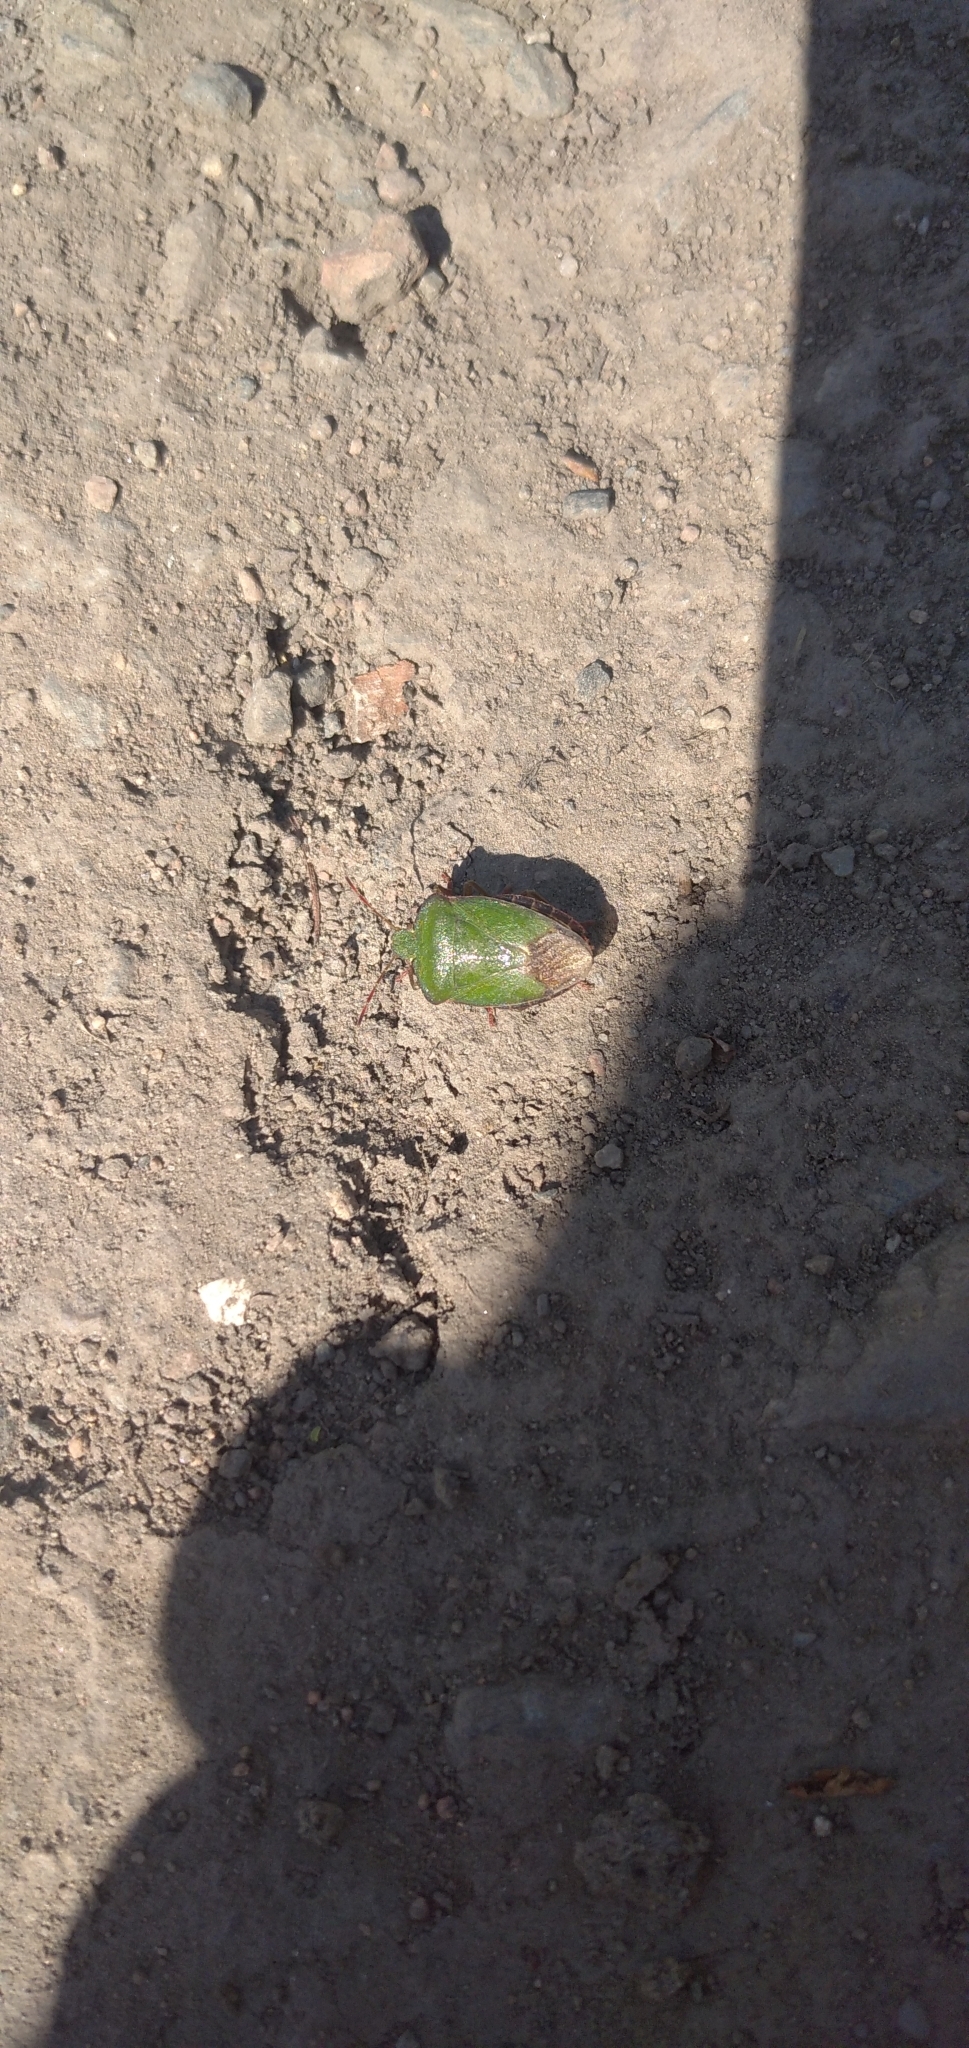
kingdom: Animalia
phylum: Arthropoda
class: Insecta
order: Hemiptera
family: Pentatomidae
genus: Palomena
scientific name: Palomena prasina
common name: Green shieldbug
